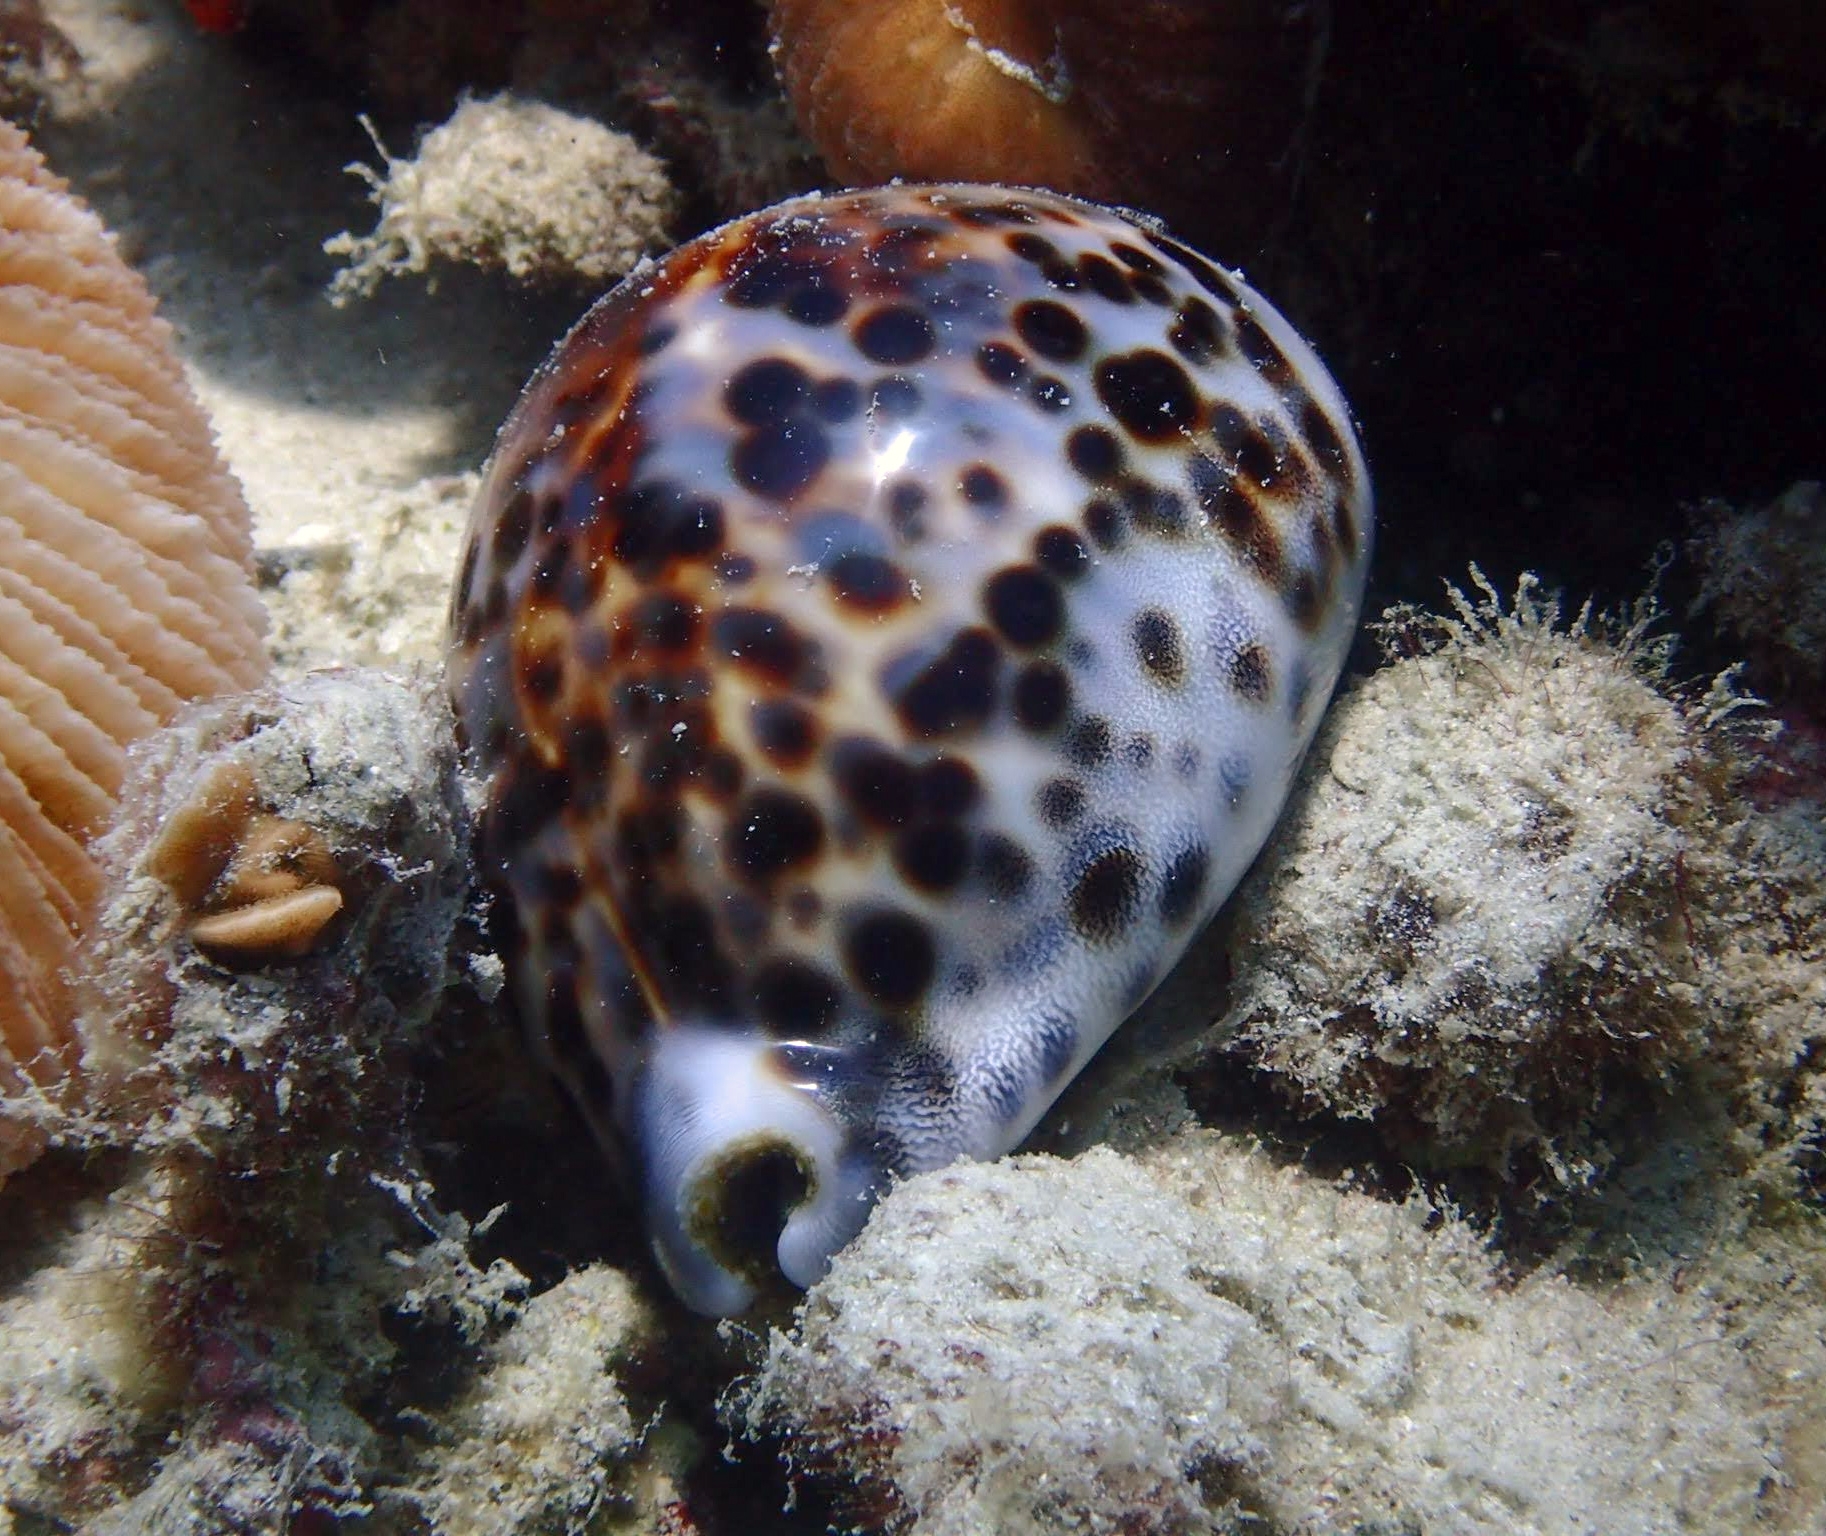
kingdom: Animalia
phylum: Mollusca
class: Gastropoda
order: Littorinimorpha
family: Cypraeidae
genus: Cypraea
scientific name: Cypraea tigris
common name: Tiger cowrie
